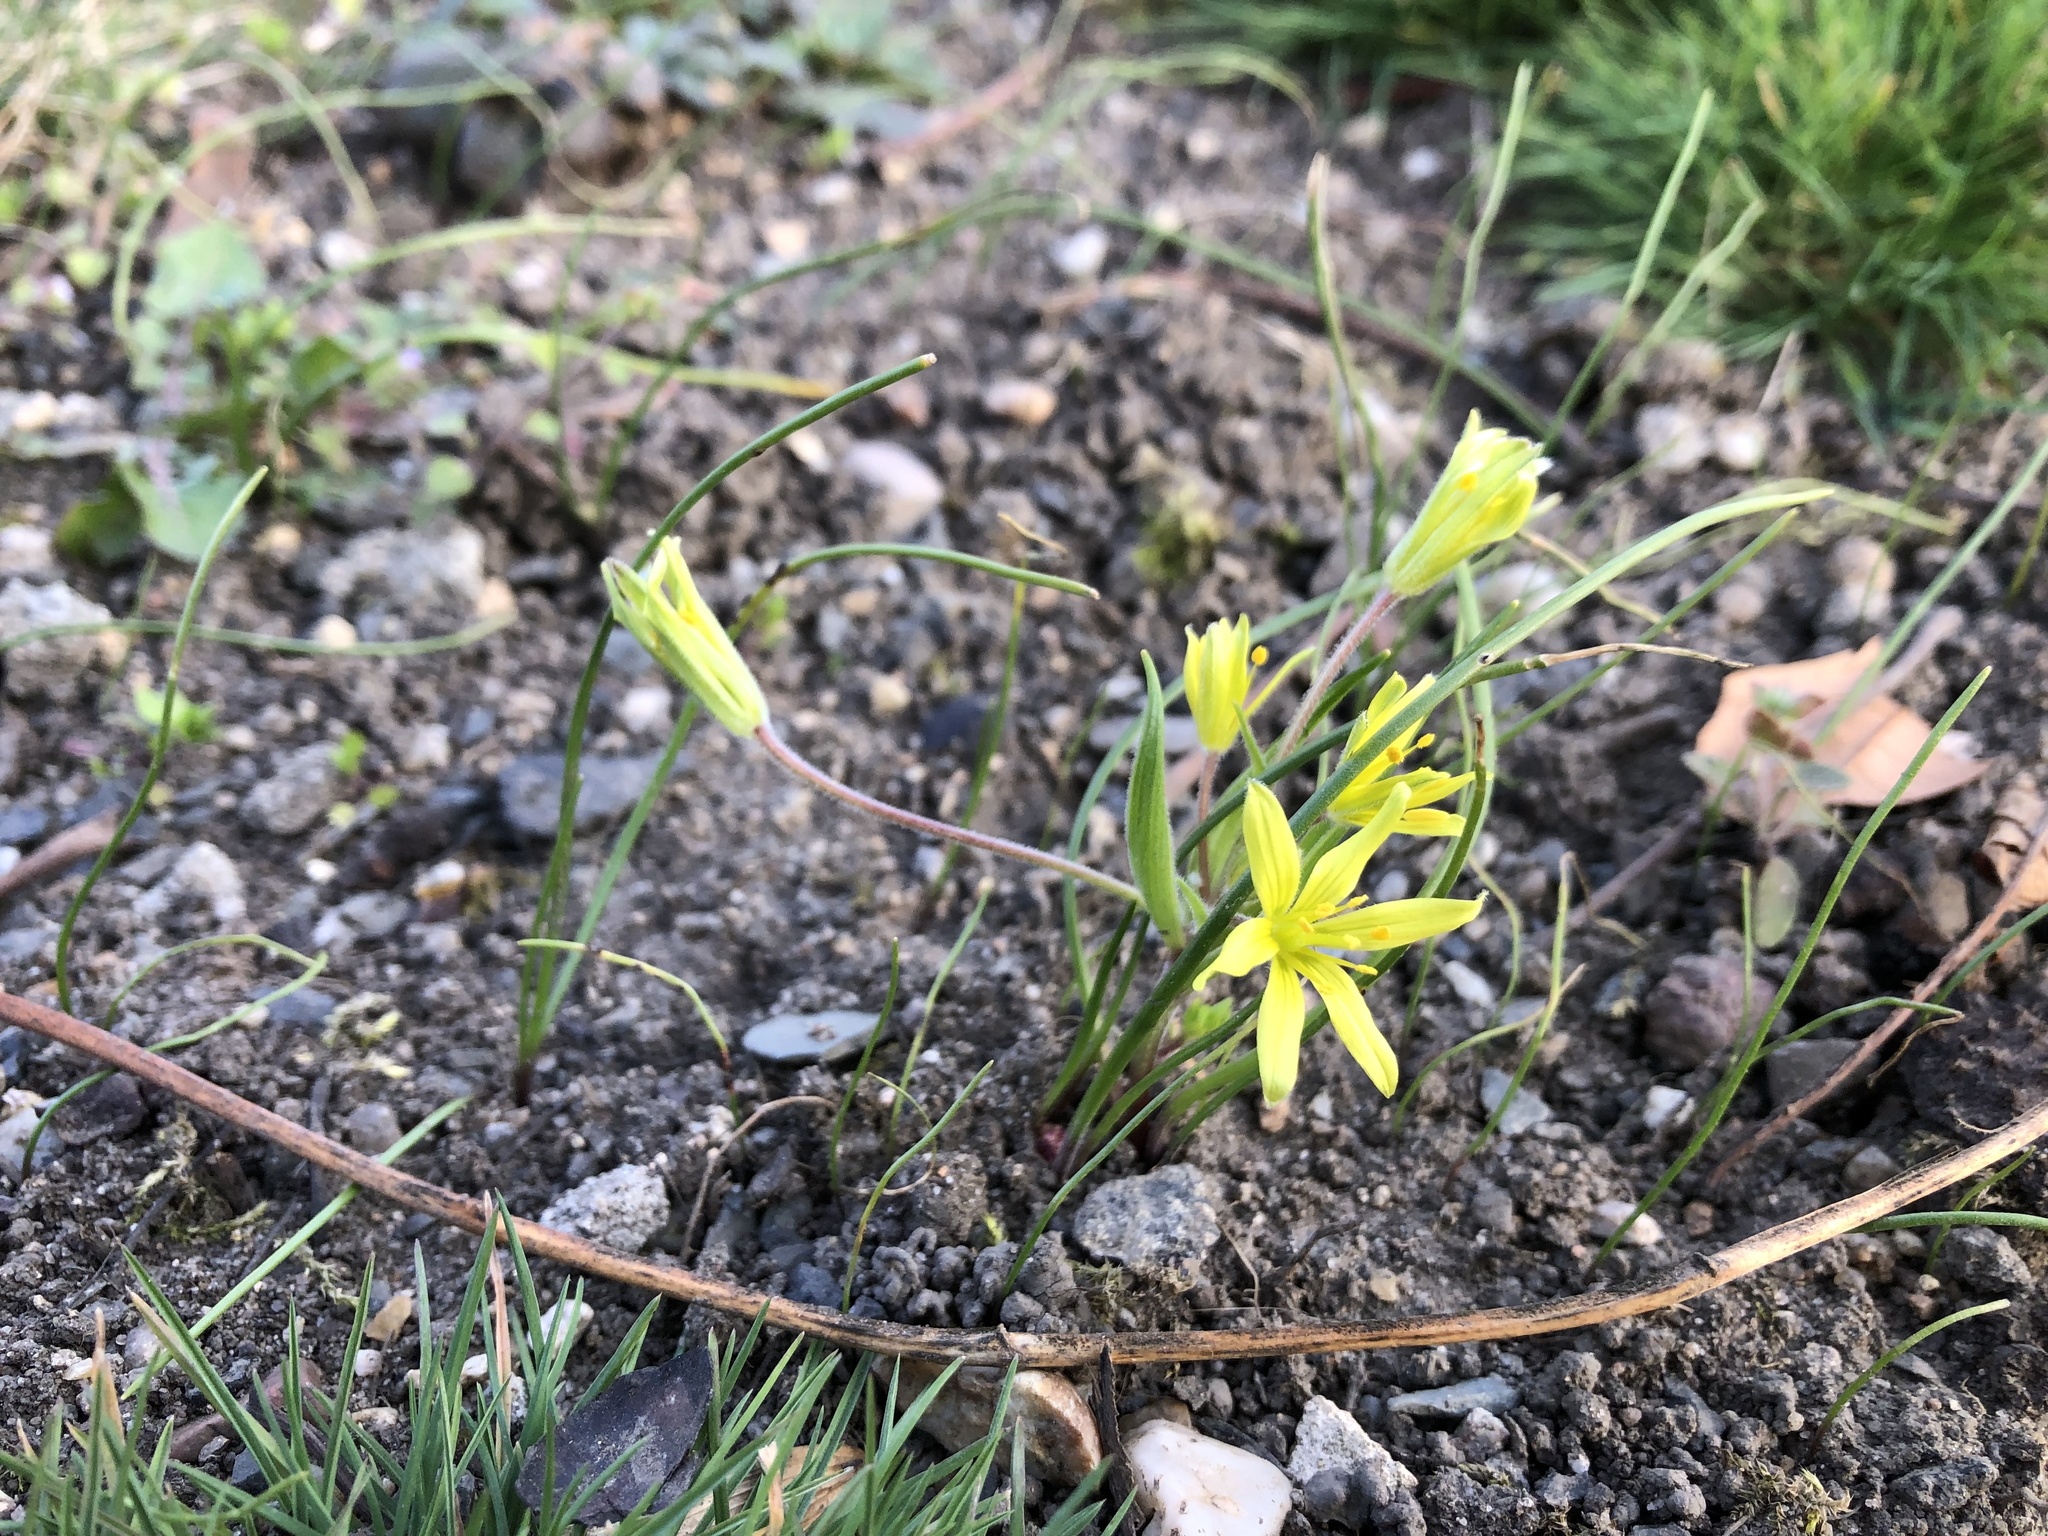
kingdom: Plantae
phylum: Tracheophyta
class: Liliopsida
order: Liliales
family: Liliaceae
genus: Gagea
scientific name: Gagea villosa
